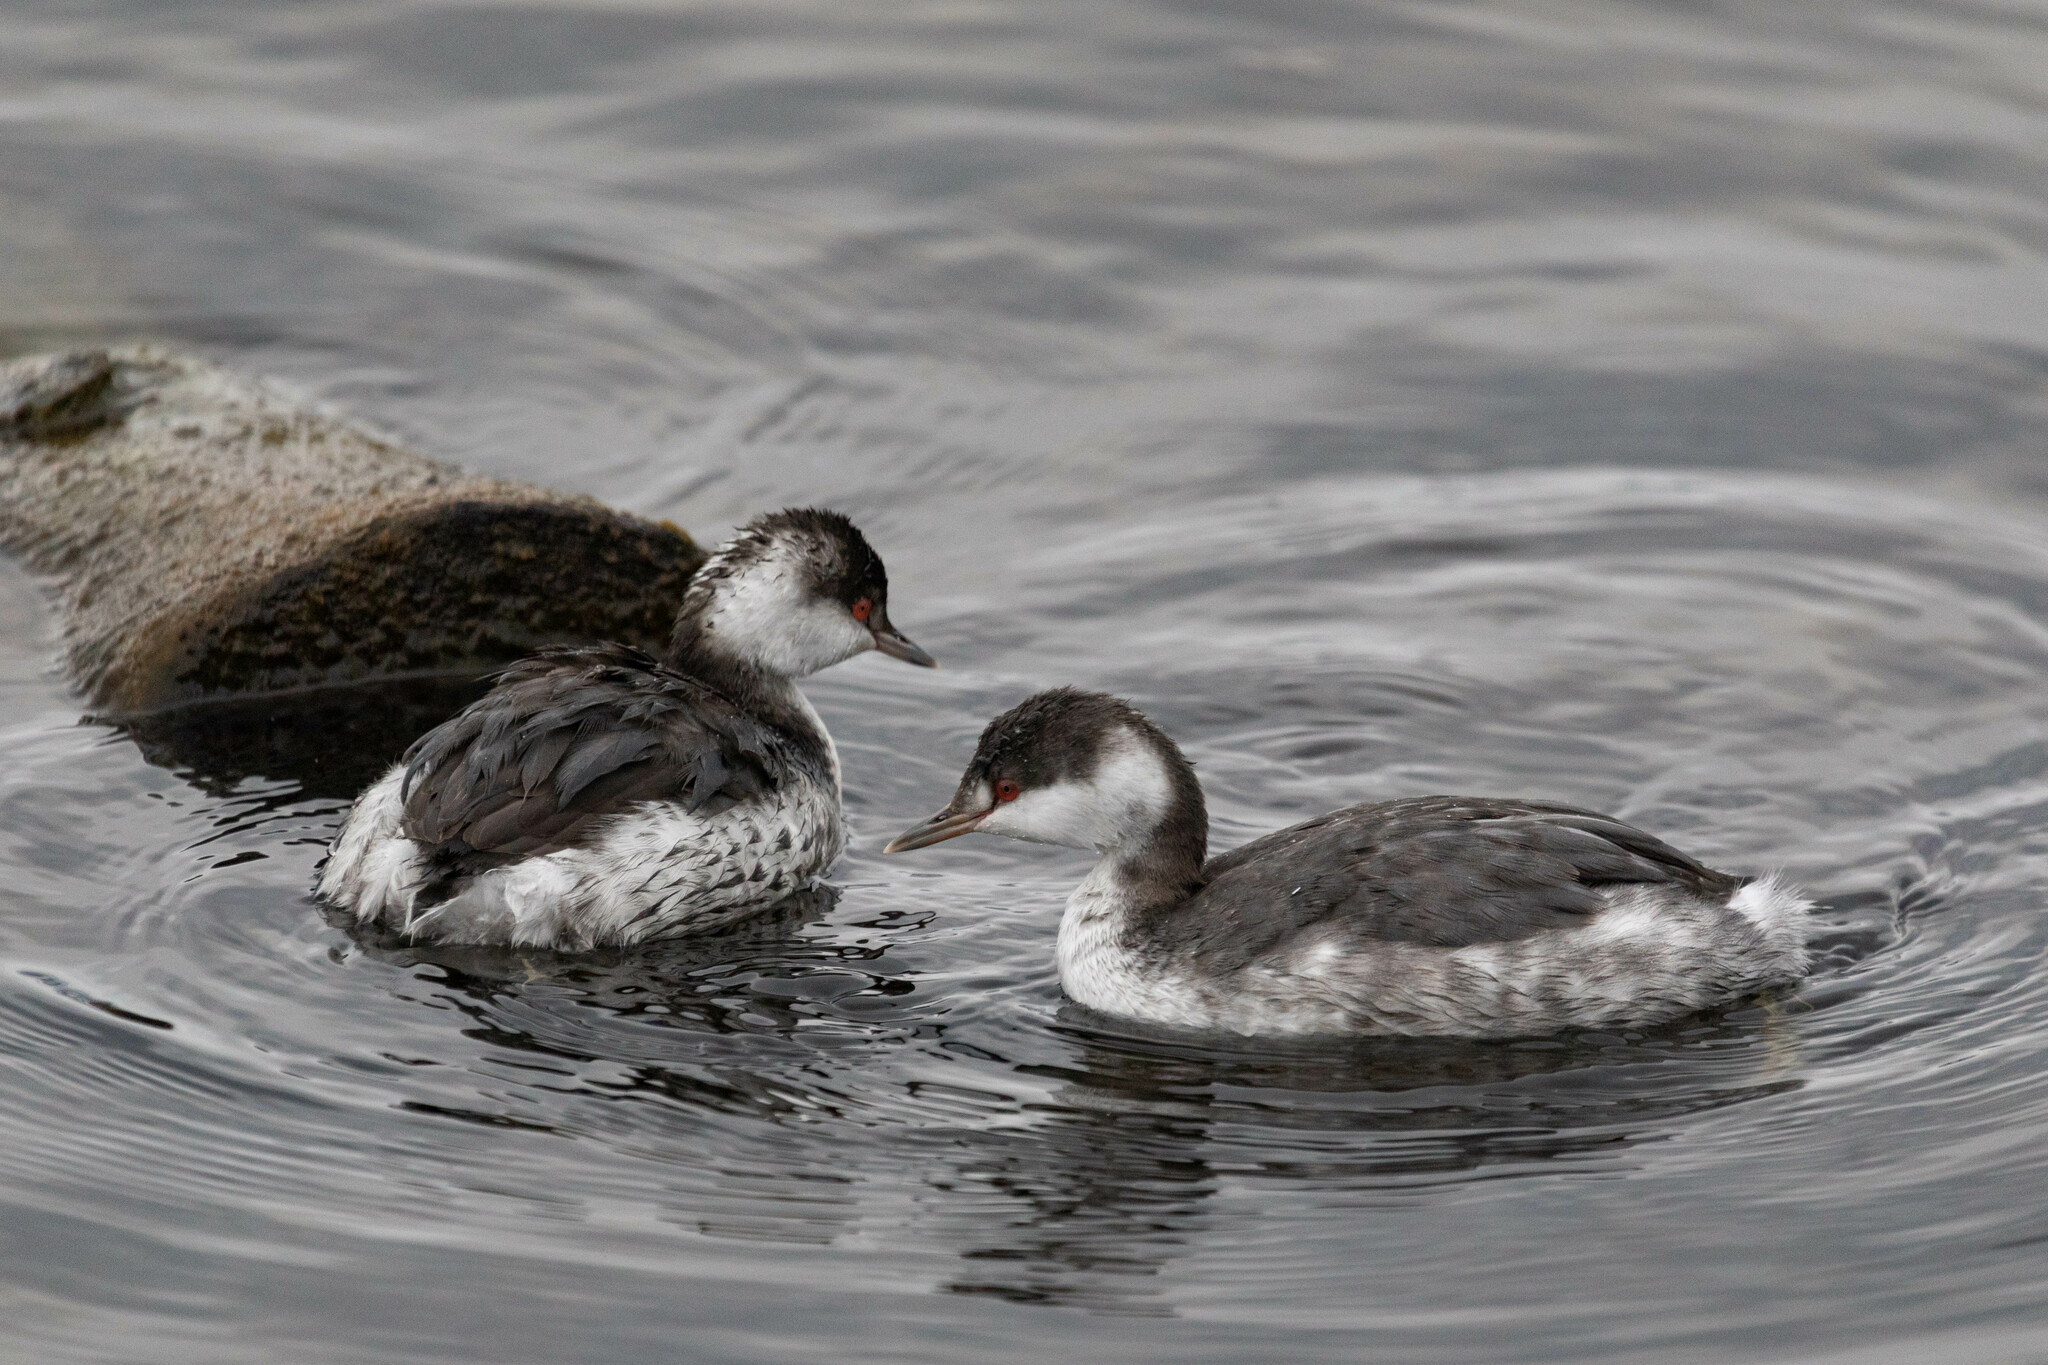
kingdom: Animalia
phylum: Chordata
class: Aves
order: Podicipediformes
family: Podicipedidae
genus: Podiceps
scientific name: Podiceps auritus
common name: Horned grebe
